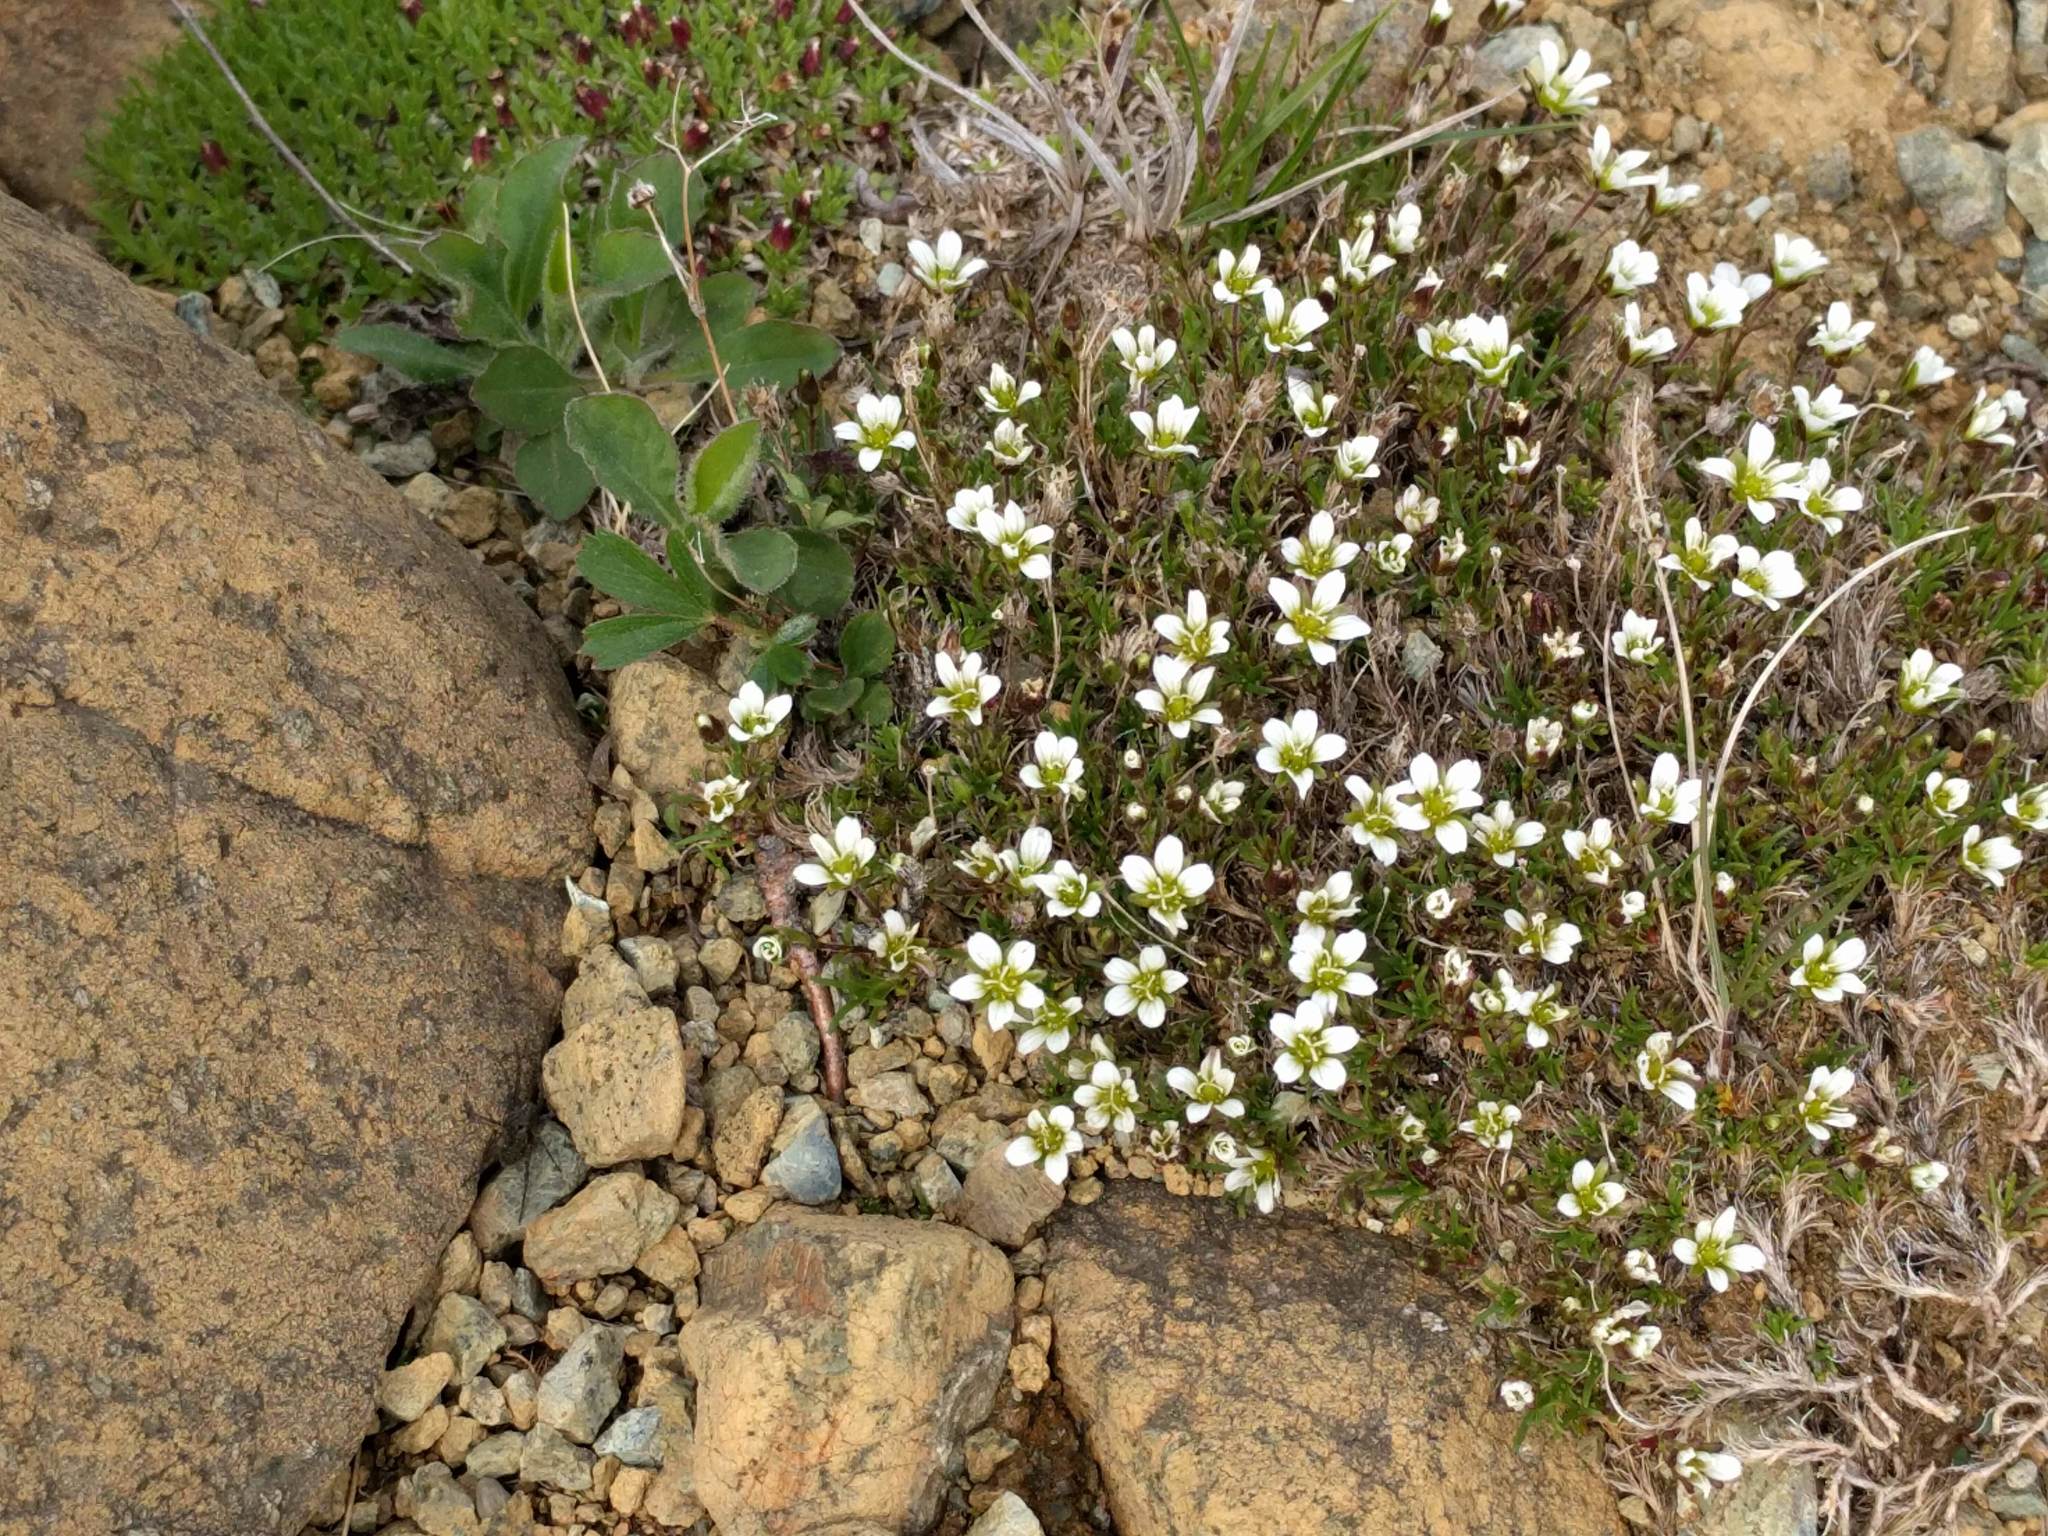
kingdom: Plantae
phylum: Tracheophyta
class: Magnoliopsida
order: Caryophyllales
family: Caryophyllaceae
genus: Cherleria
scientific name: Cherleria marcescens
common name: Dry-leaved sandwort
